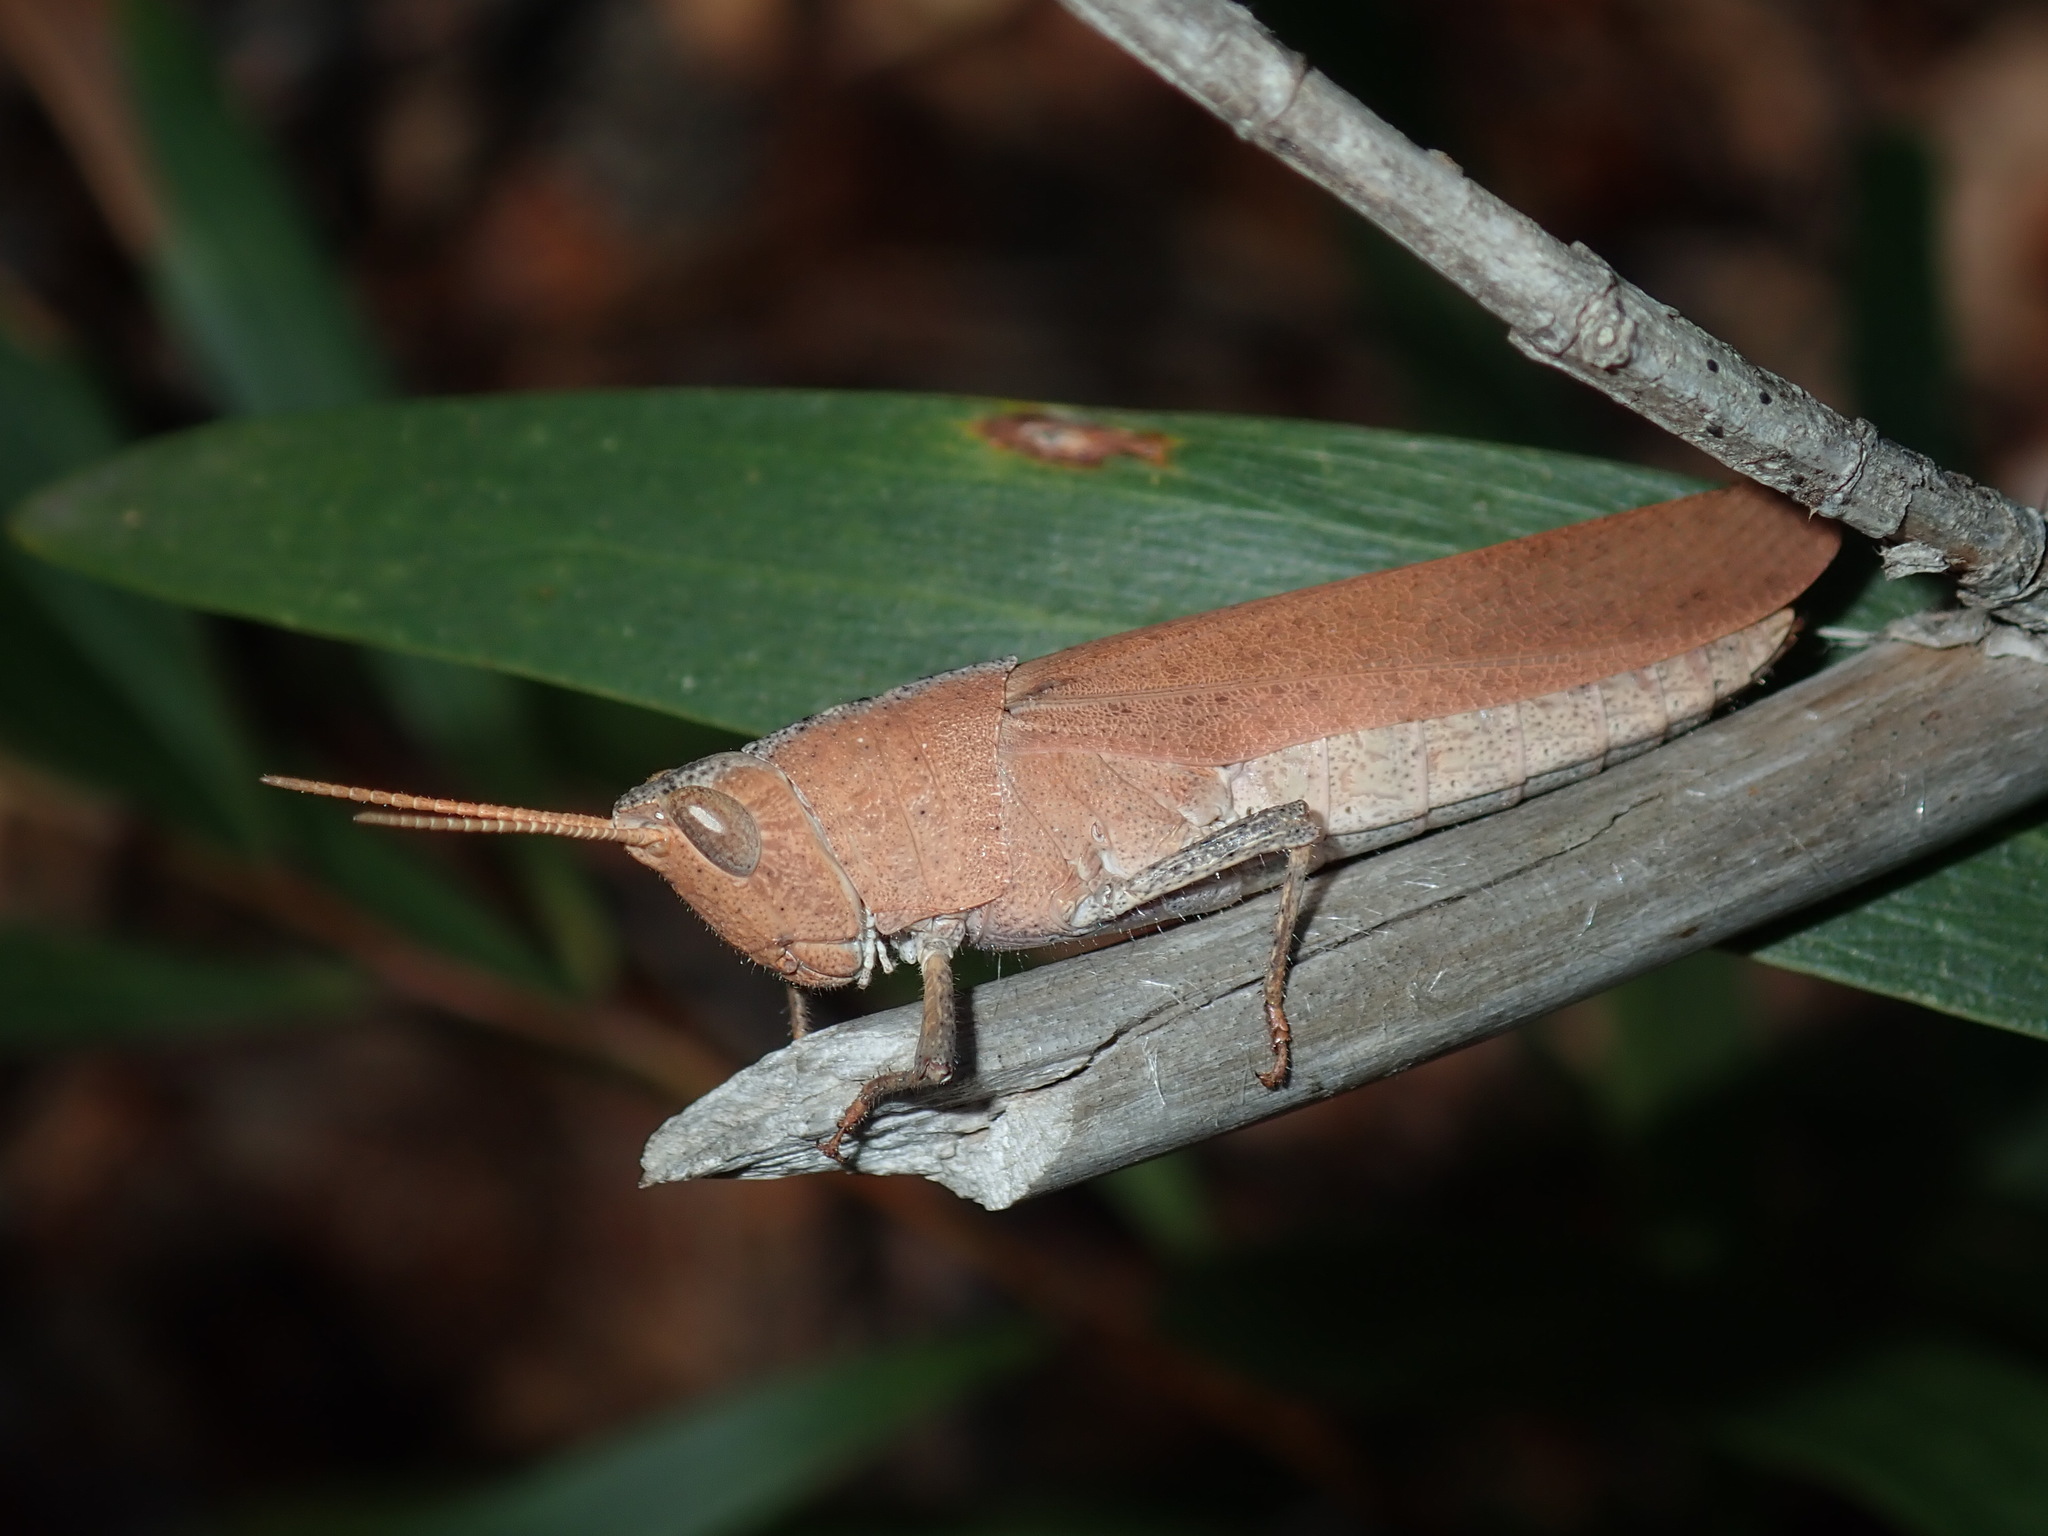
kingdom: Animalia
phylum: Arthropoda
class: Insecta
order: Orthoptera
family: Acrididae
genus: Goniaea
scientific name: Goniaea opomaloides
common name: Mimetic gumleaf grasshopper
